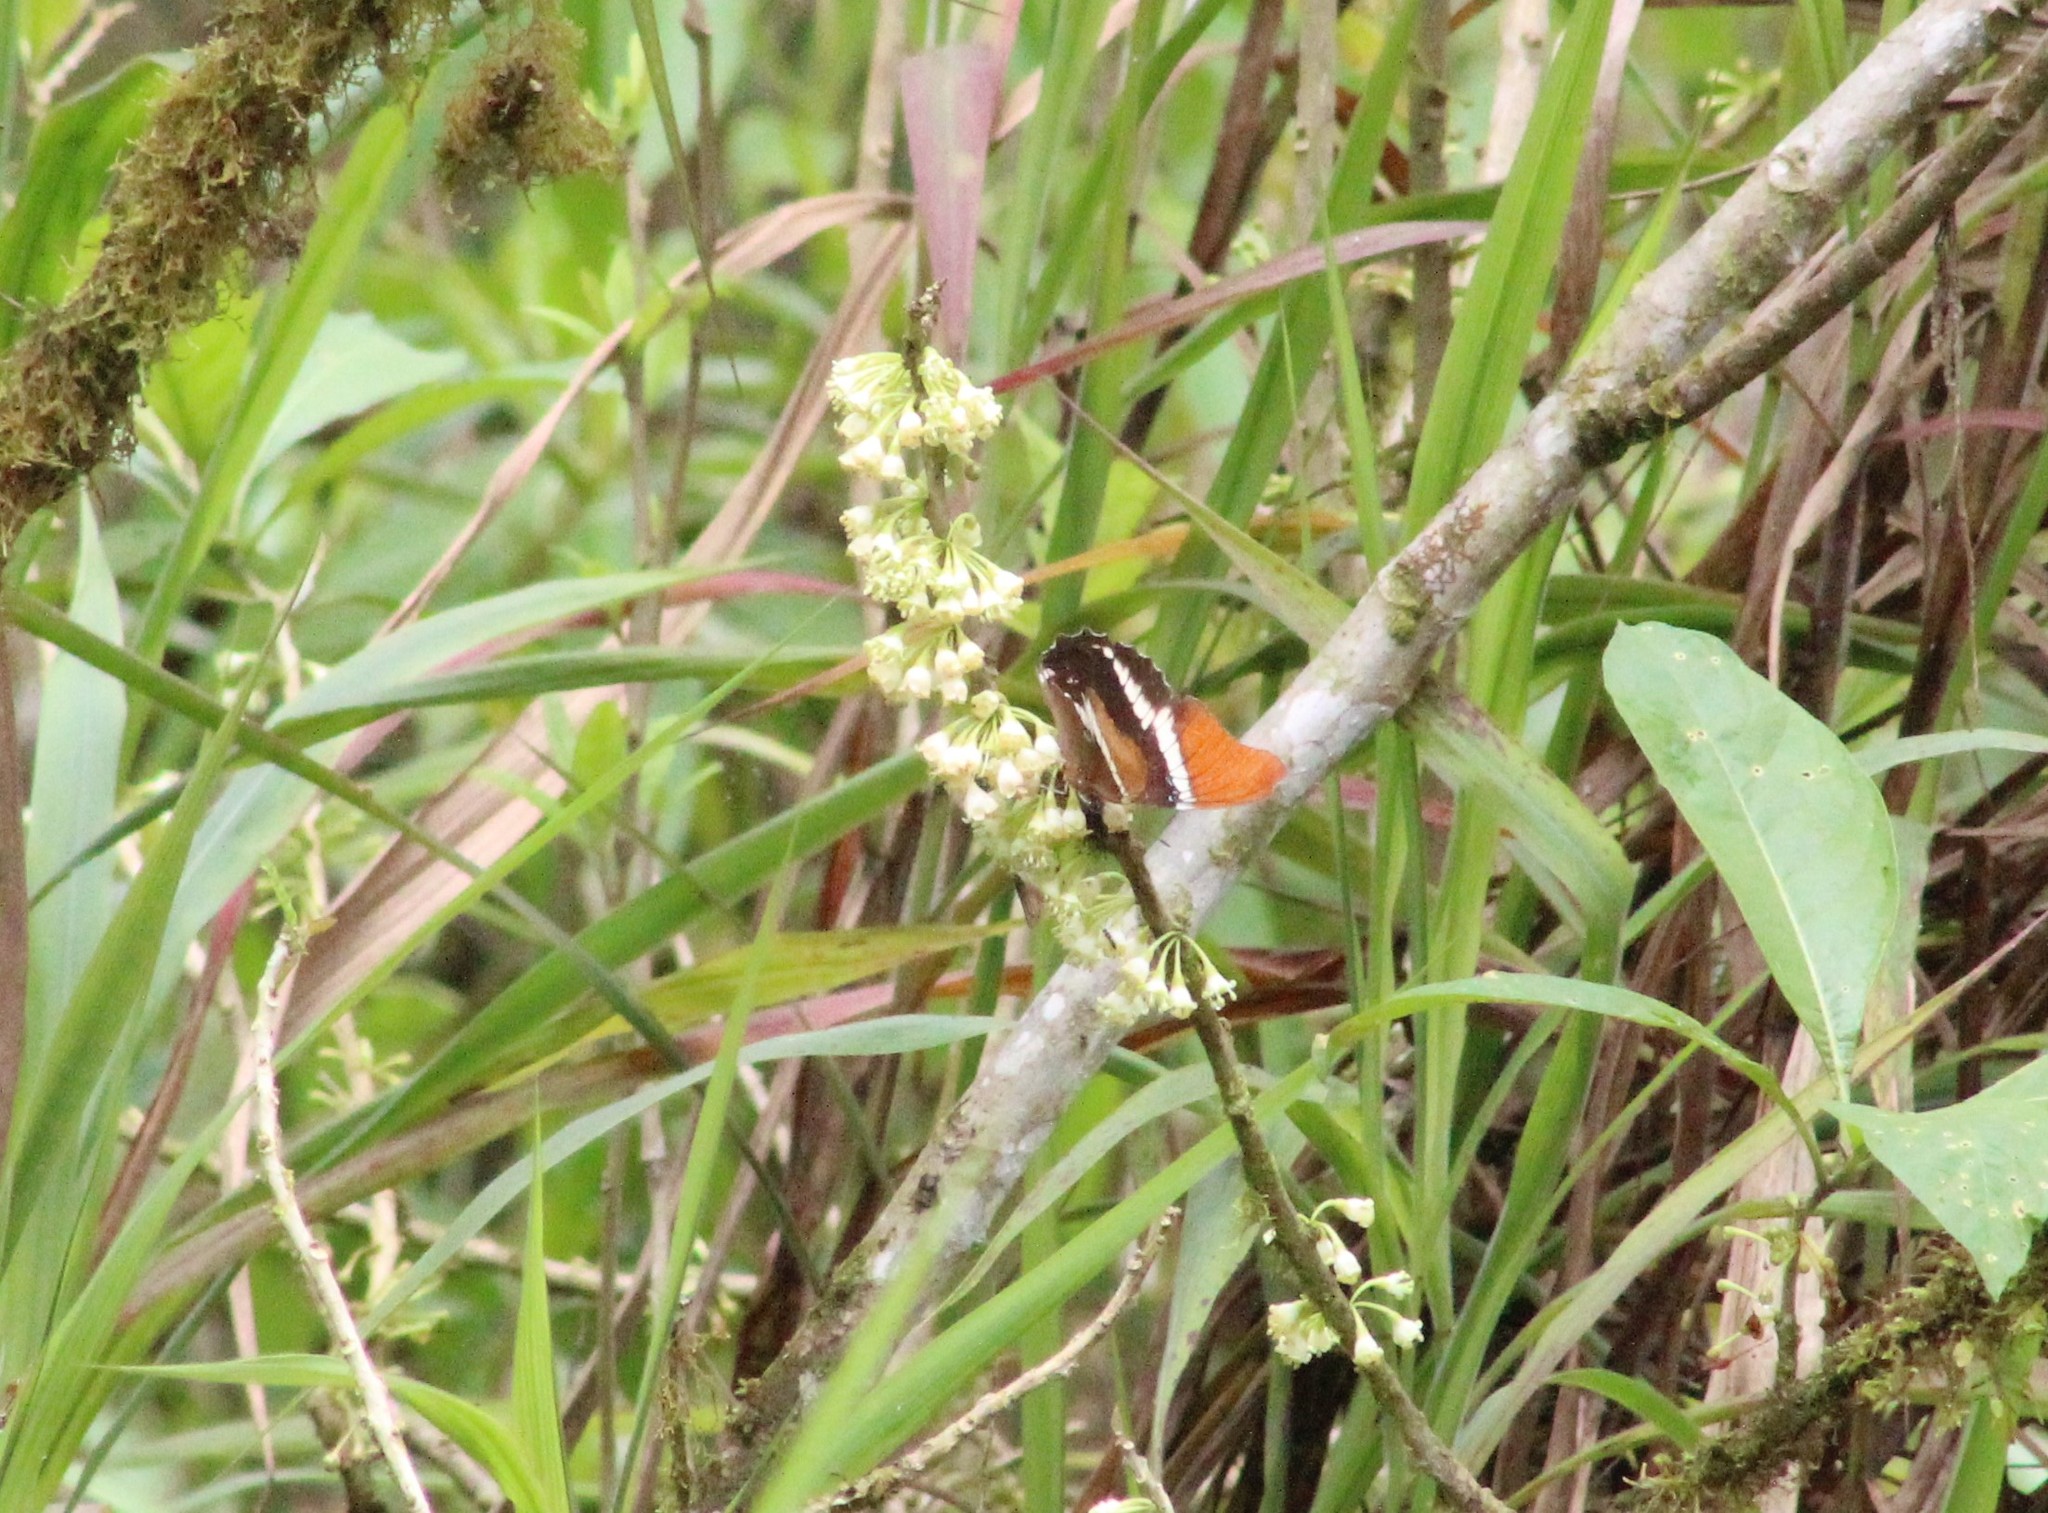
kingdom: Animalia
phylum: Arthropoda
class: Insecta
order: Lepidoptera
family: Nymphalidae
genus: Siproeta
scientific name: Siproeta epaphus
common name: Rusty-tipped page
